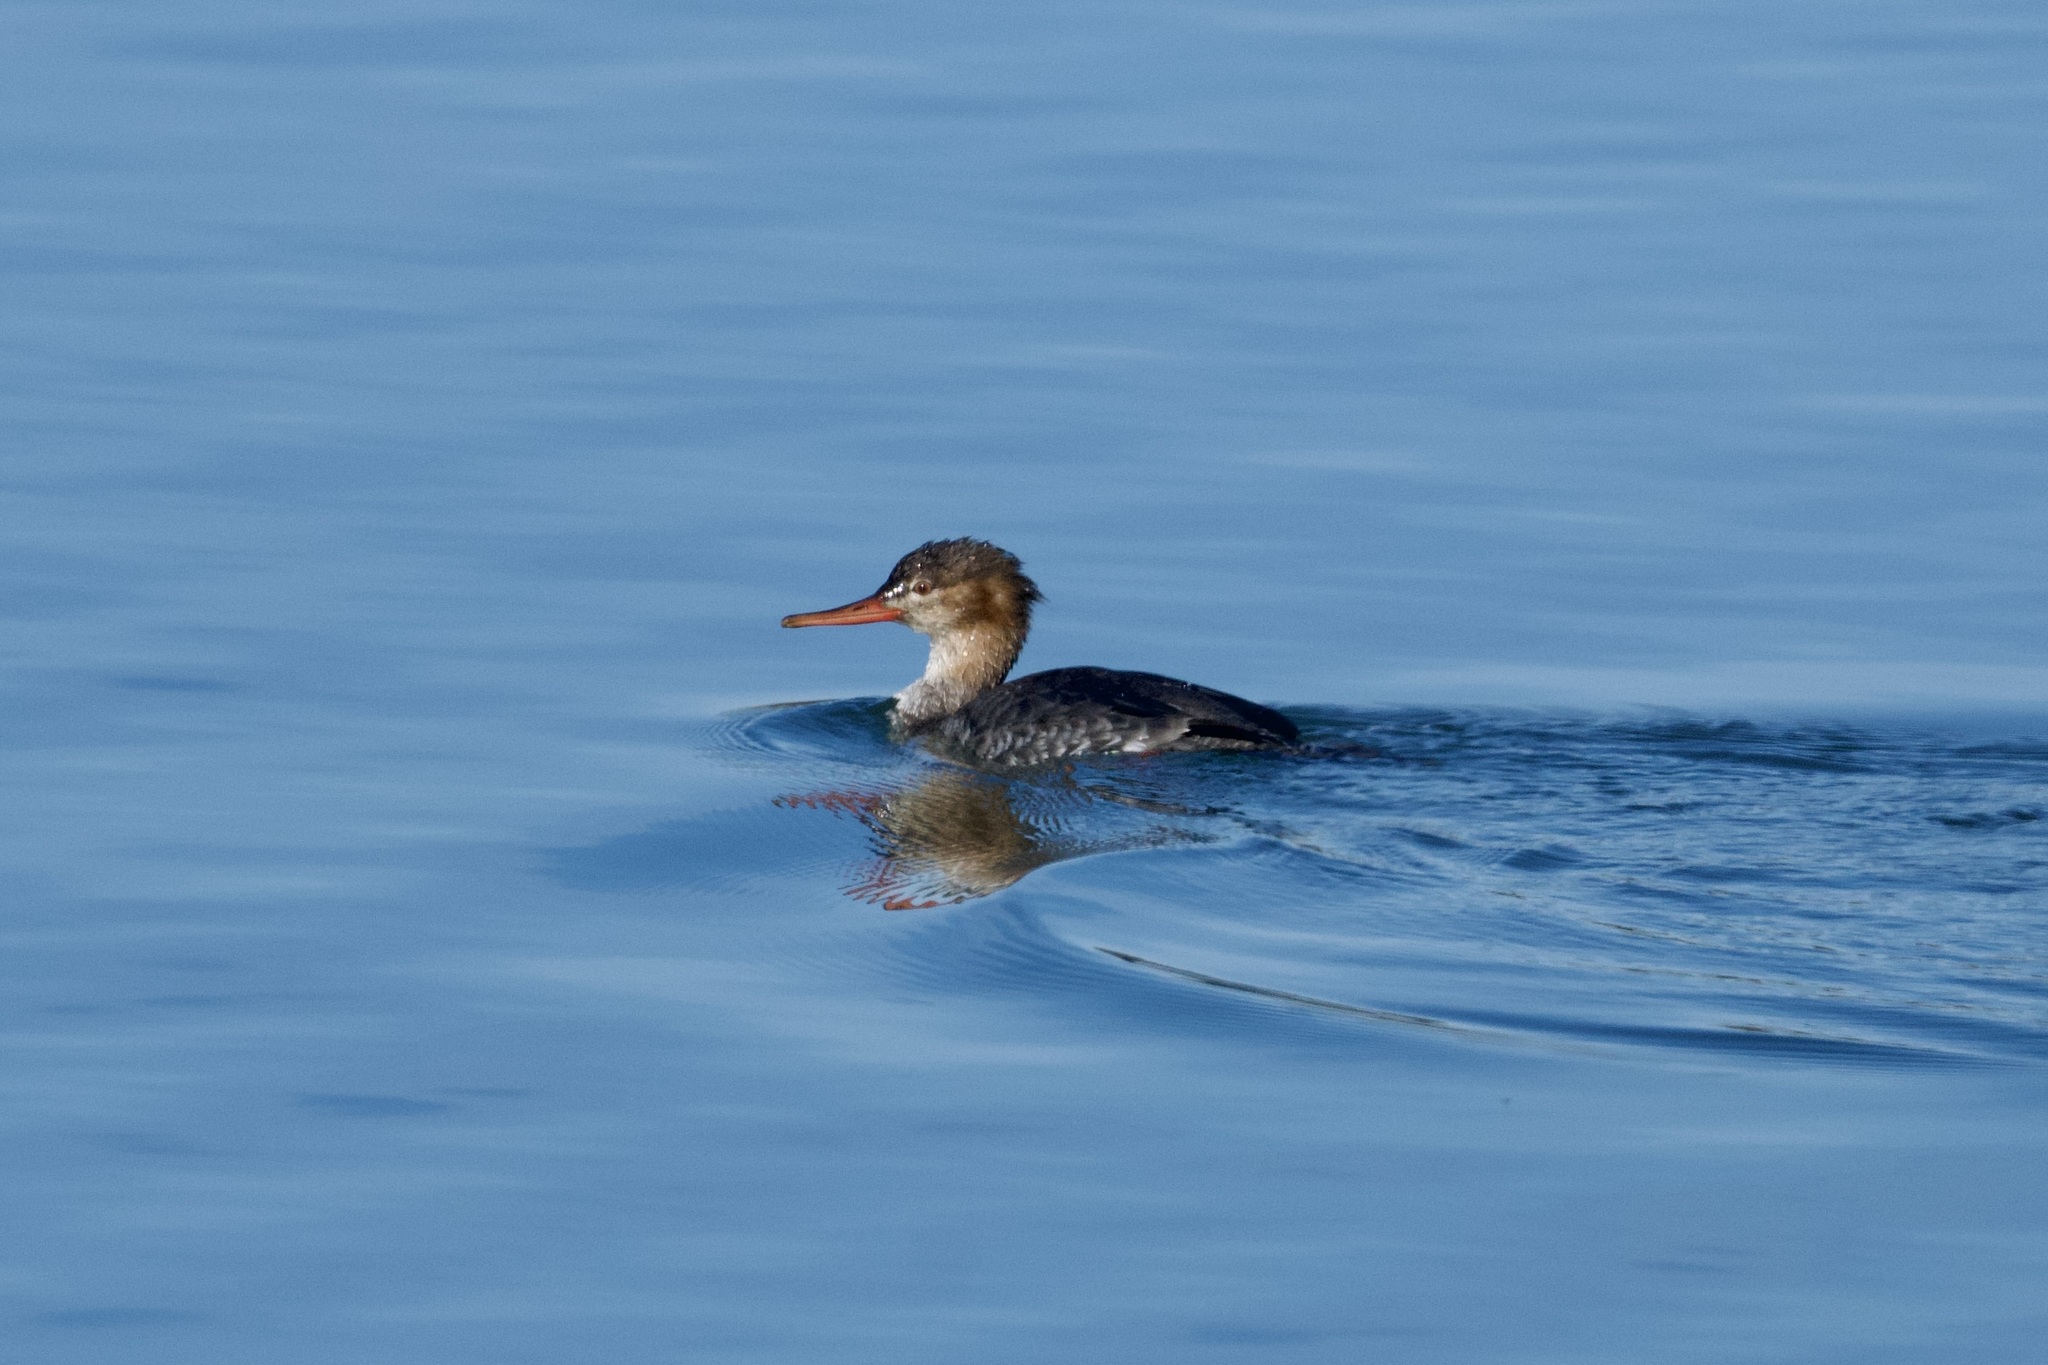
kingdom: Animalia
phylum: Chordata
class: Aves
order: Anseriformes
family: Anatidae
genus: Mergus
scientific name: Mergus serrator
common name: Red-breasted merganser
